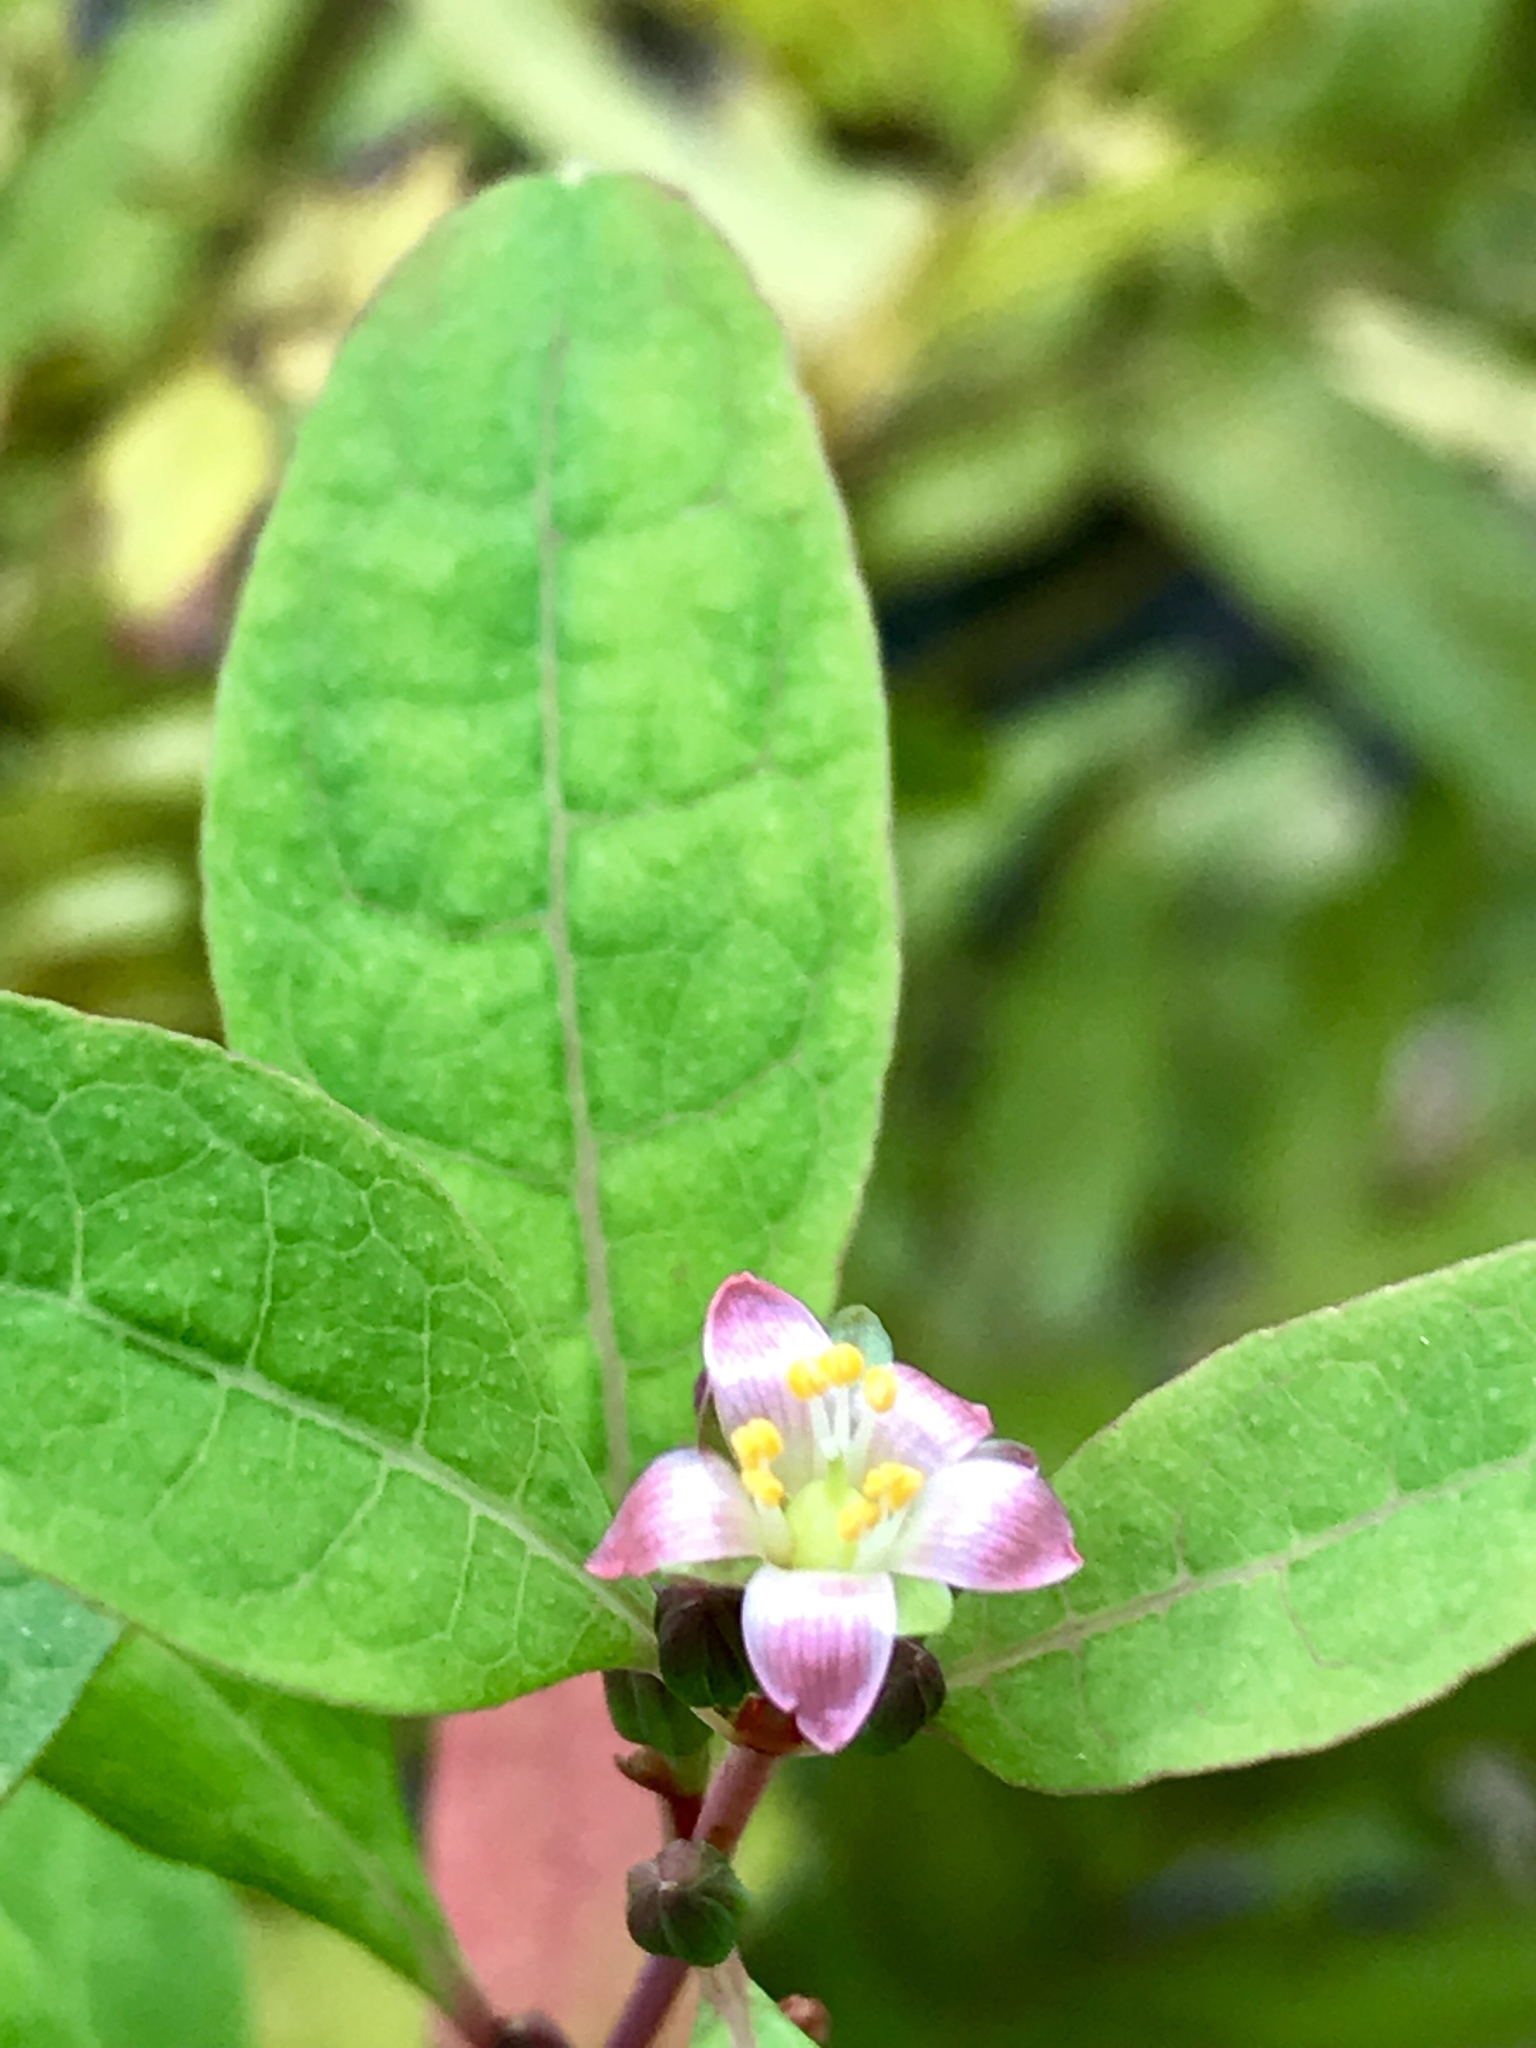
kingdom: Plantae
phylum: Tracheophyta
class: Magnoliopsida
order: Malpighiales
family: Hypericaceae
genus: Triadenum
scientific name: Triadenum walteri
